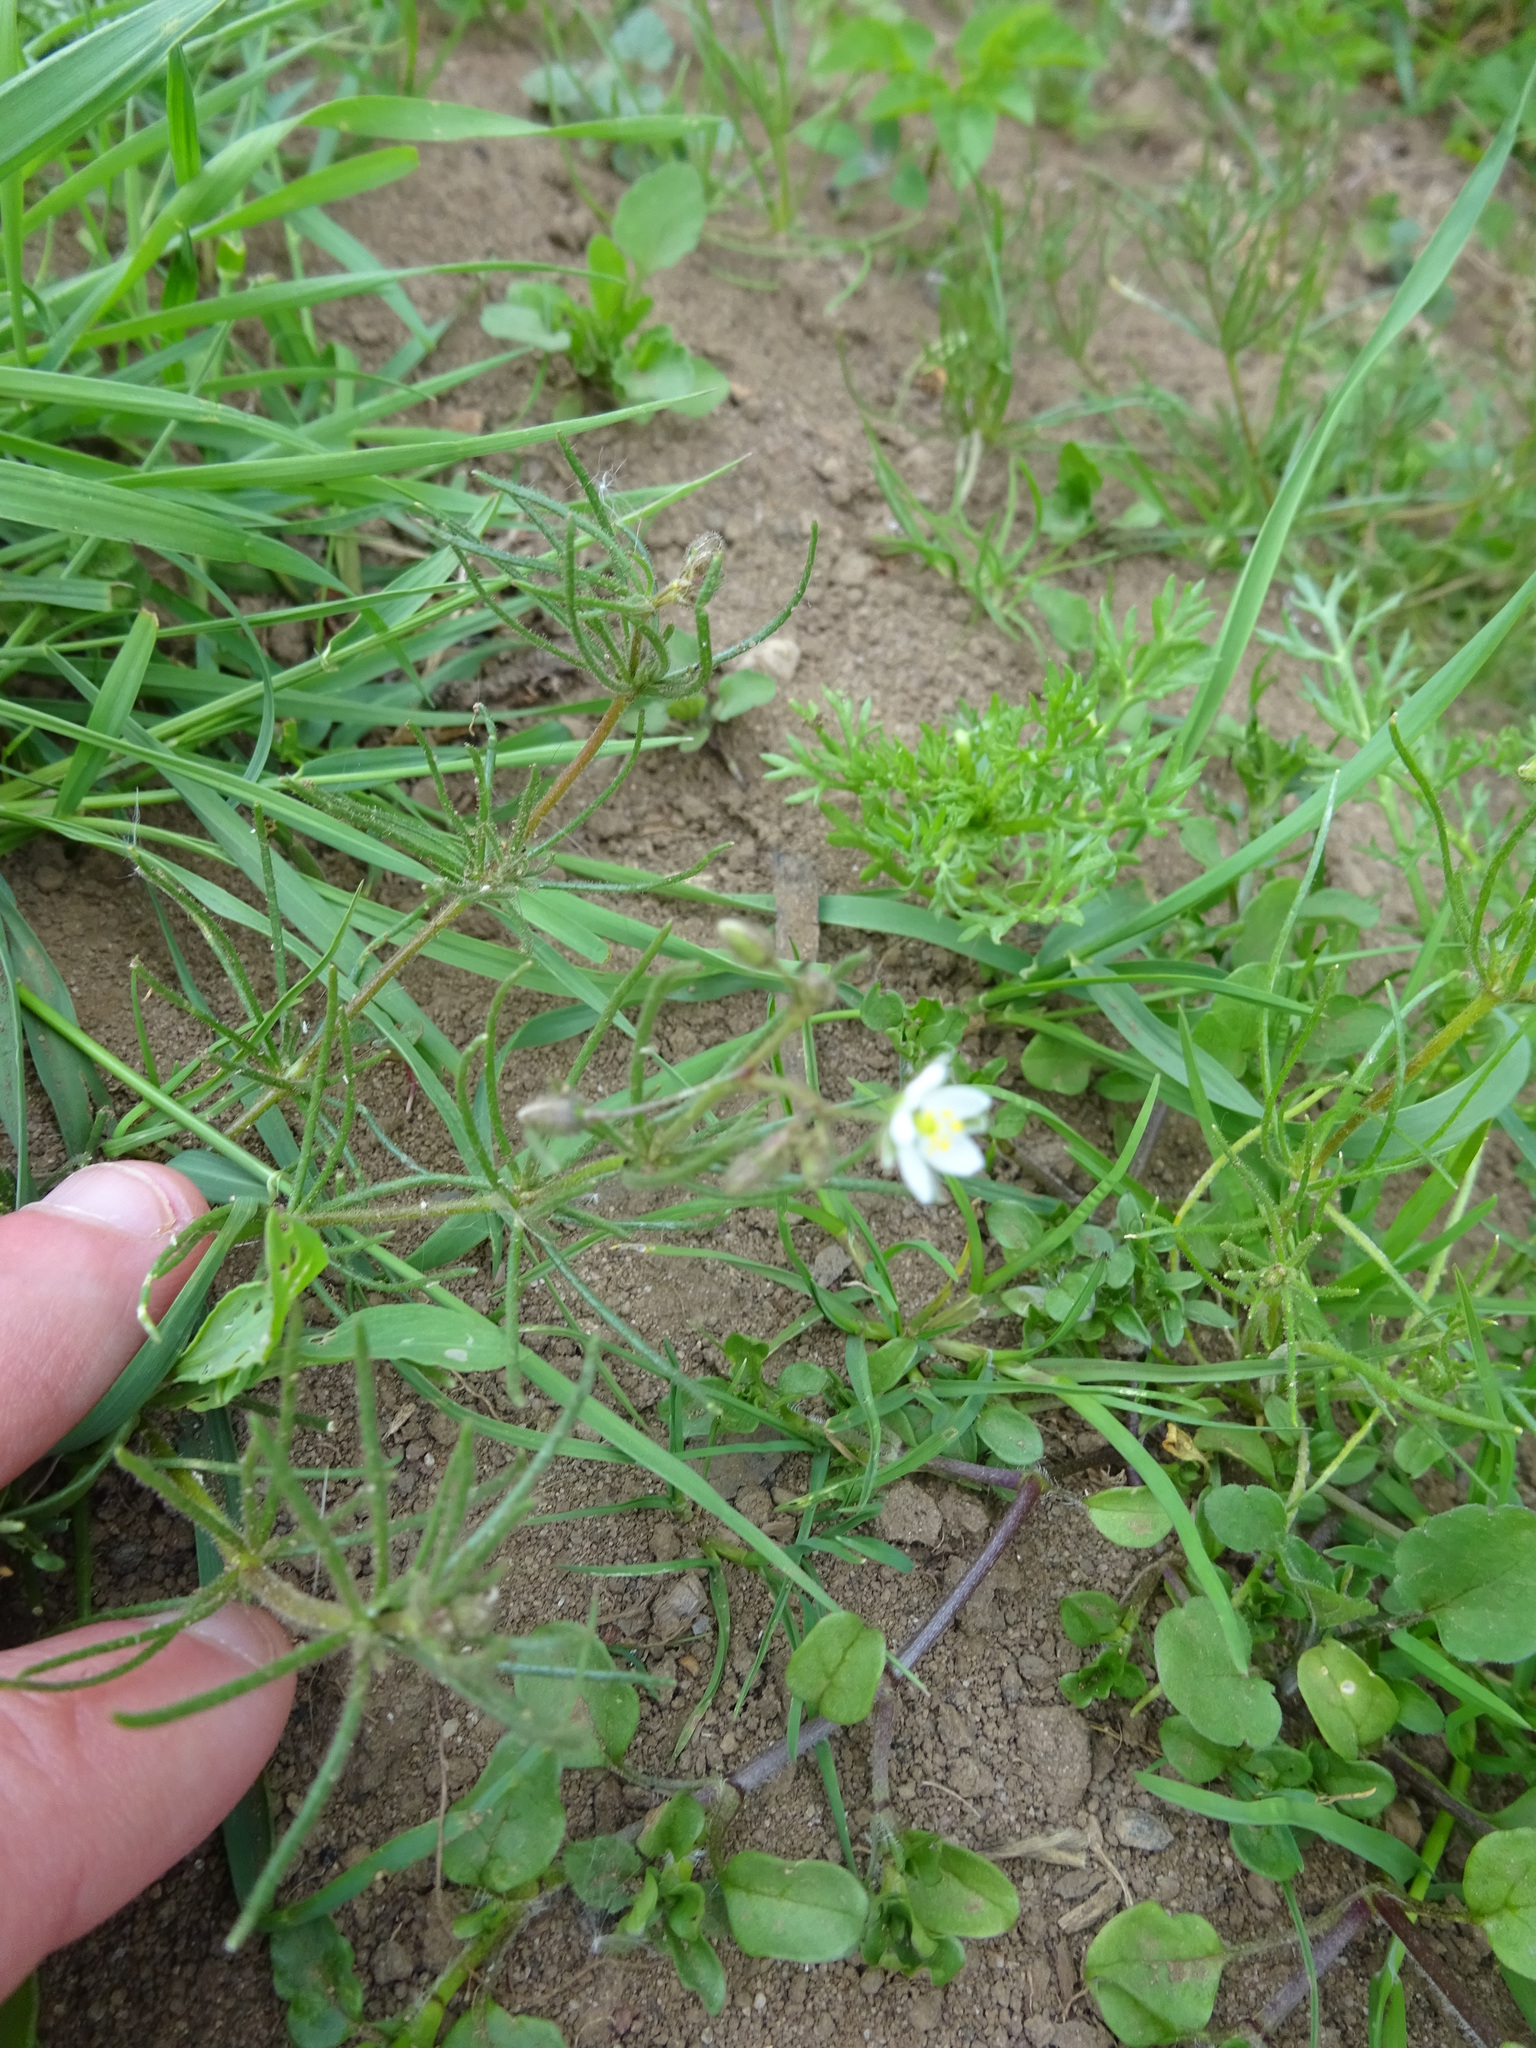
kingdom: Plantae
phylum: Tracheophyta
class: Magnoliopsida
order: Caryophyllales
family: Caryophyllaceae
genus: Spergula
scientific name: Spergula arvensis
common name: Corn spurrey
